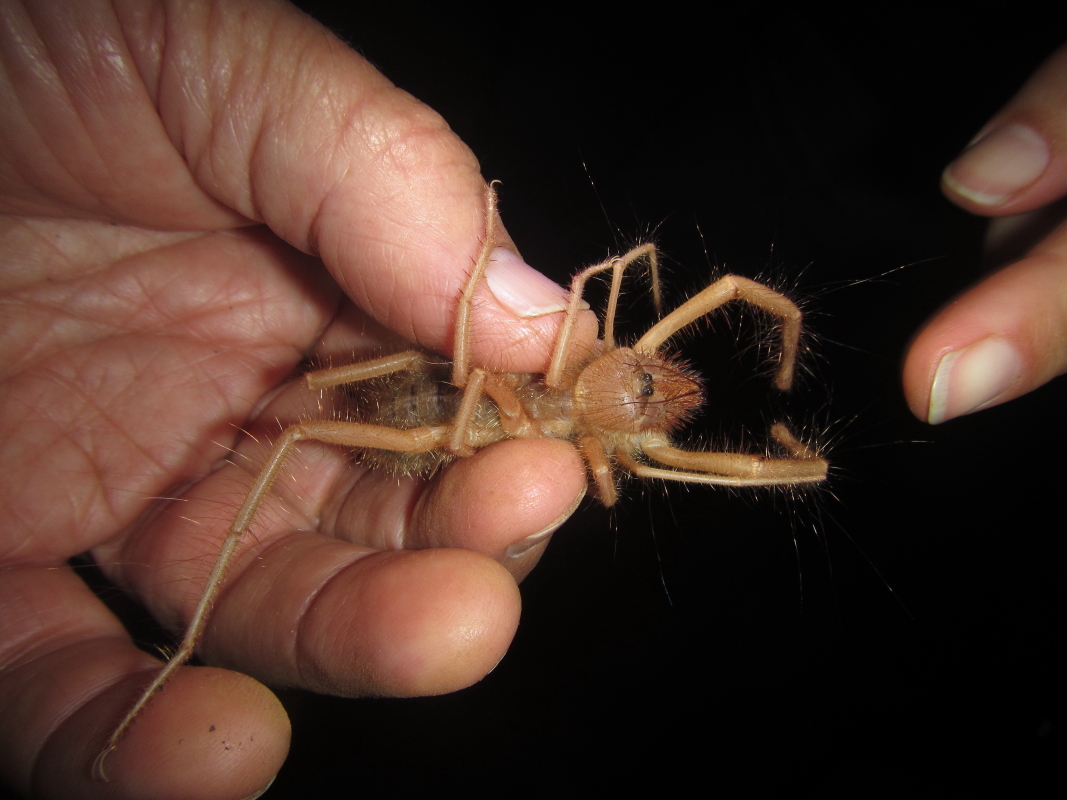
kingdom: Animalia
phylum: Arthropoda
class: Arachnida
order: Solifugae
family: Solpugidae
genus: Zeria
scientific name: Zeria monteiri
